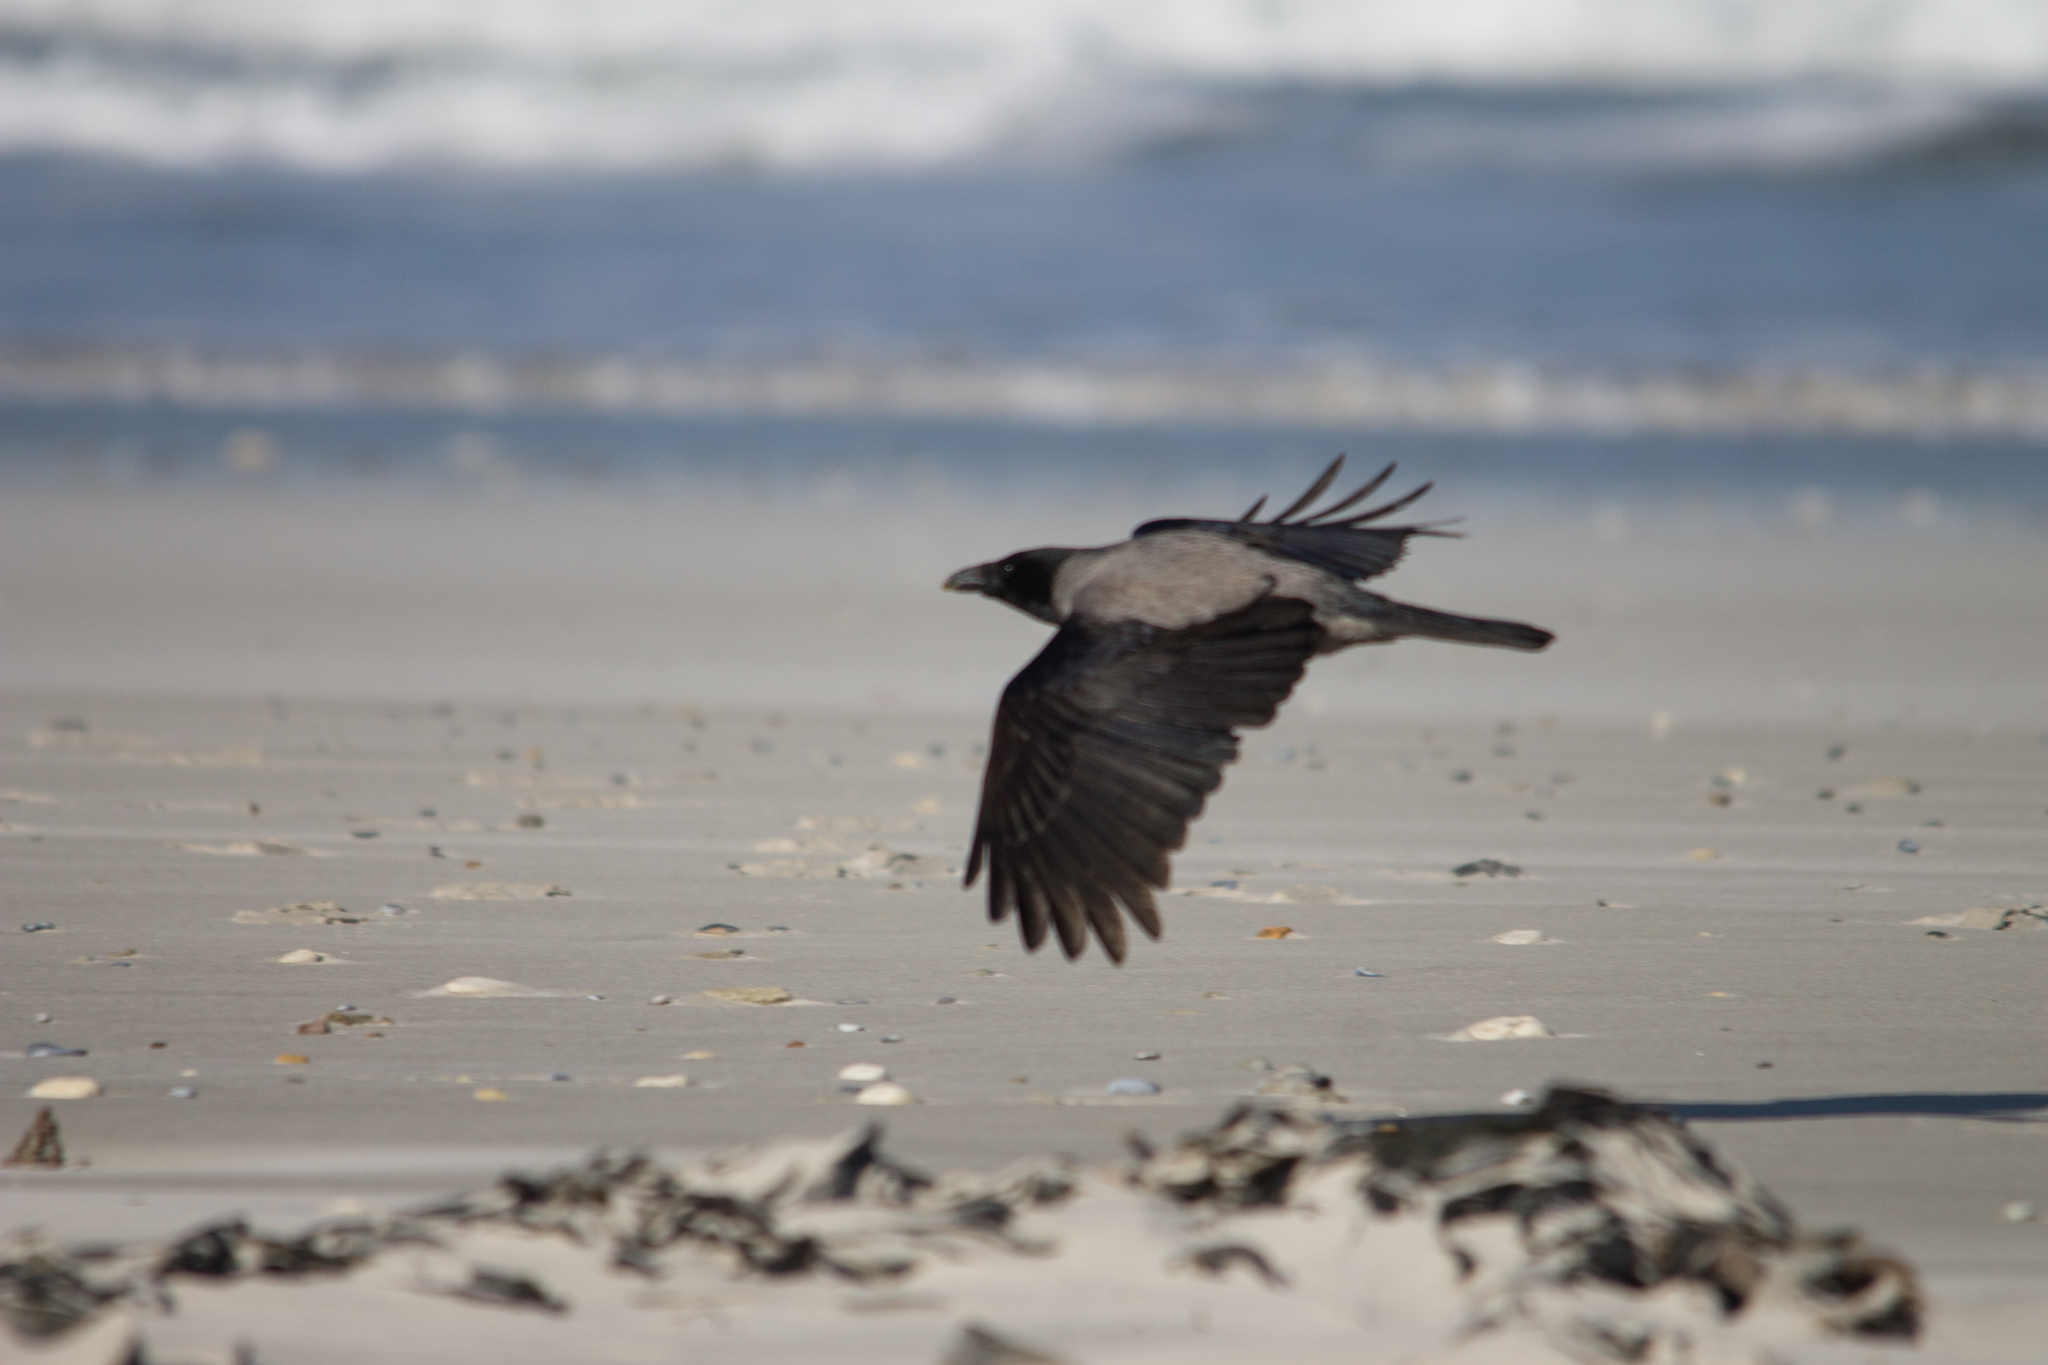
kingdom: Animalia
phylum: Chordata
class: Aves
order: Passeriformes
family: Corvidae
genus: Corvus
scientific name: Corvus cornix
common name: Hooded crow
